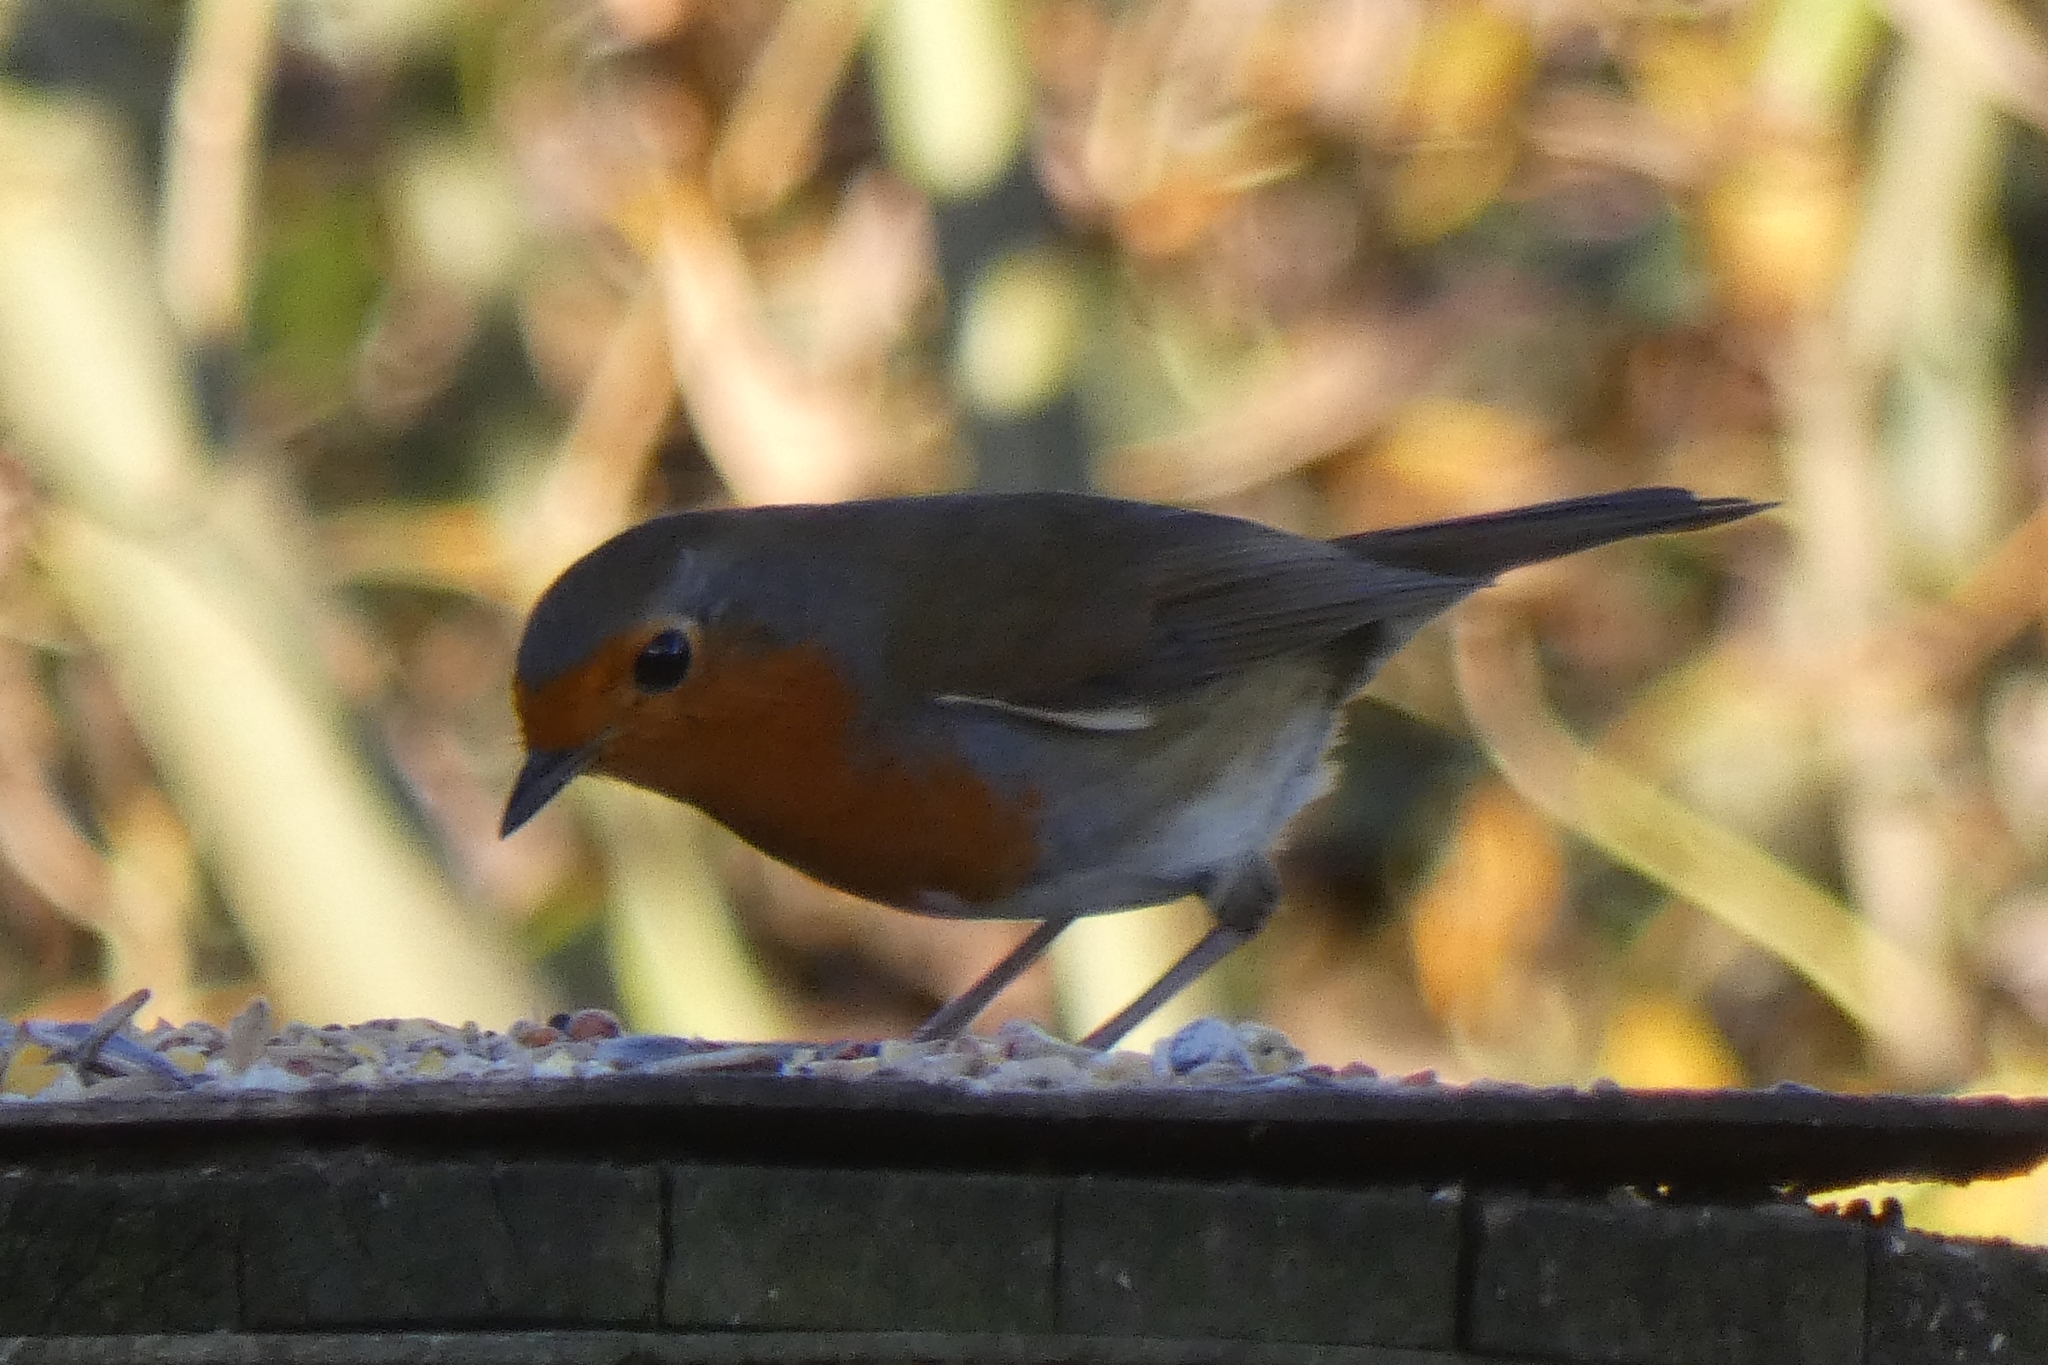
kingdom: Animalia
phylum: Chordata
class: Aves
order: Passeriformes
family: Muscicapidae
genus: Erithacus
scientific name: Erithacus rubecula
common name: European robin
